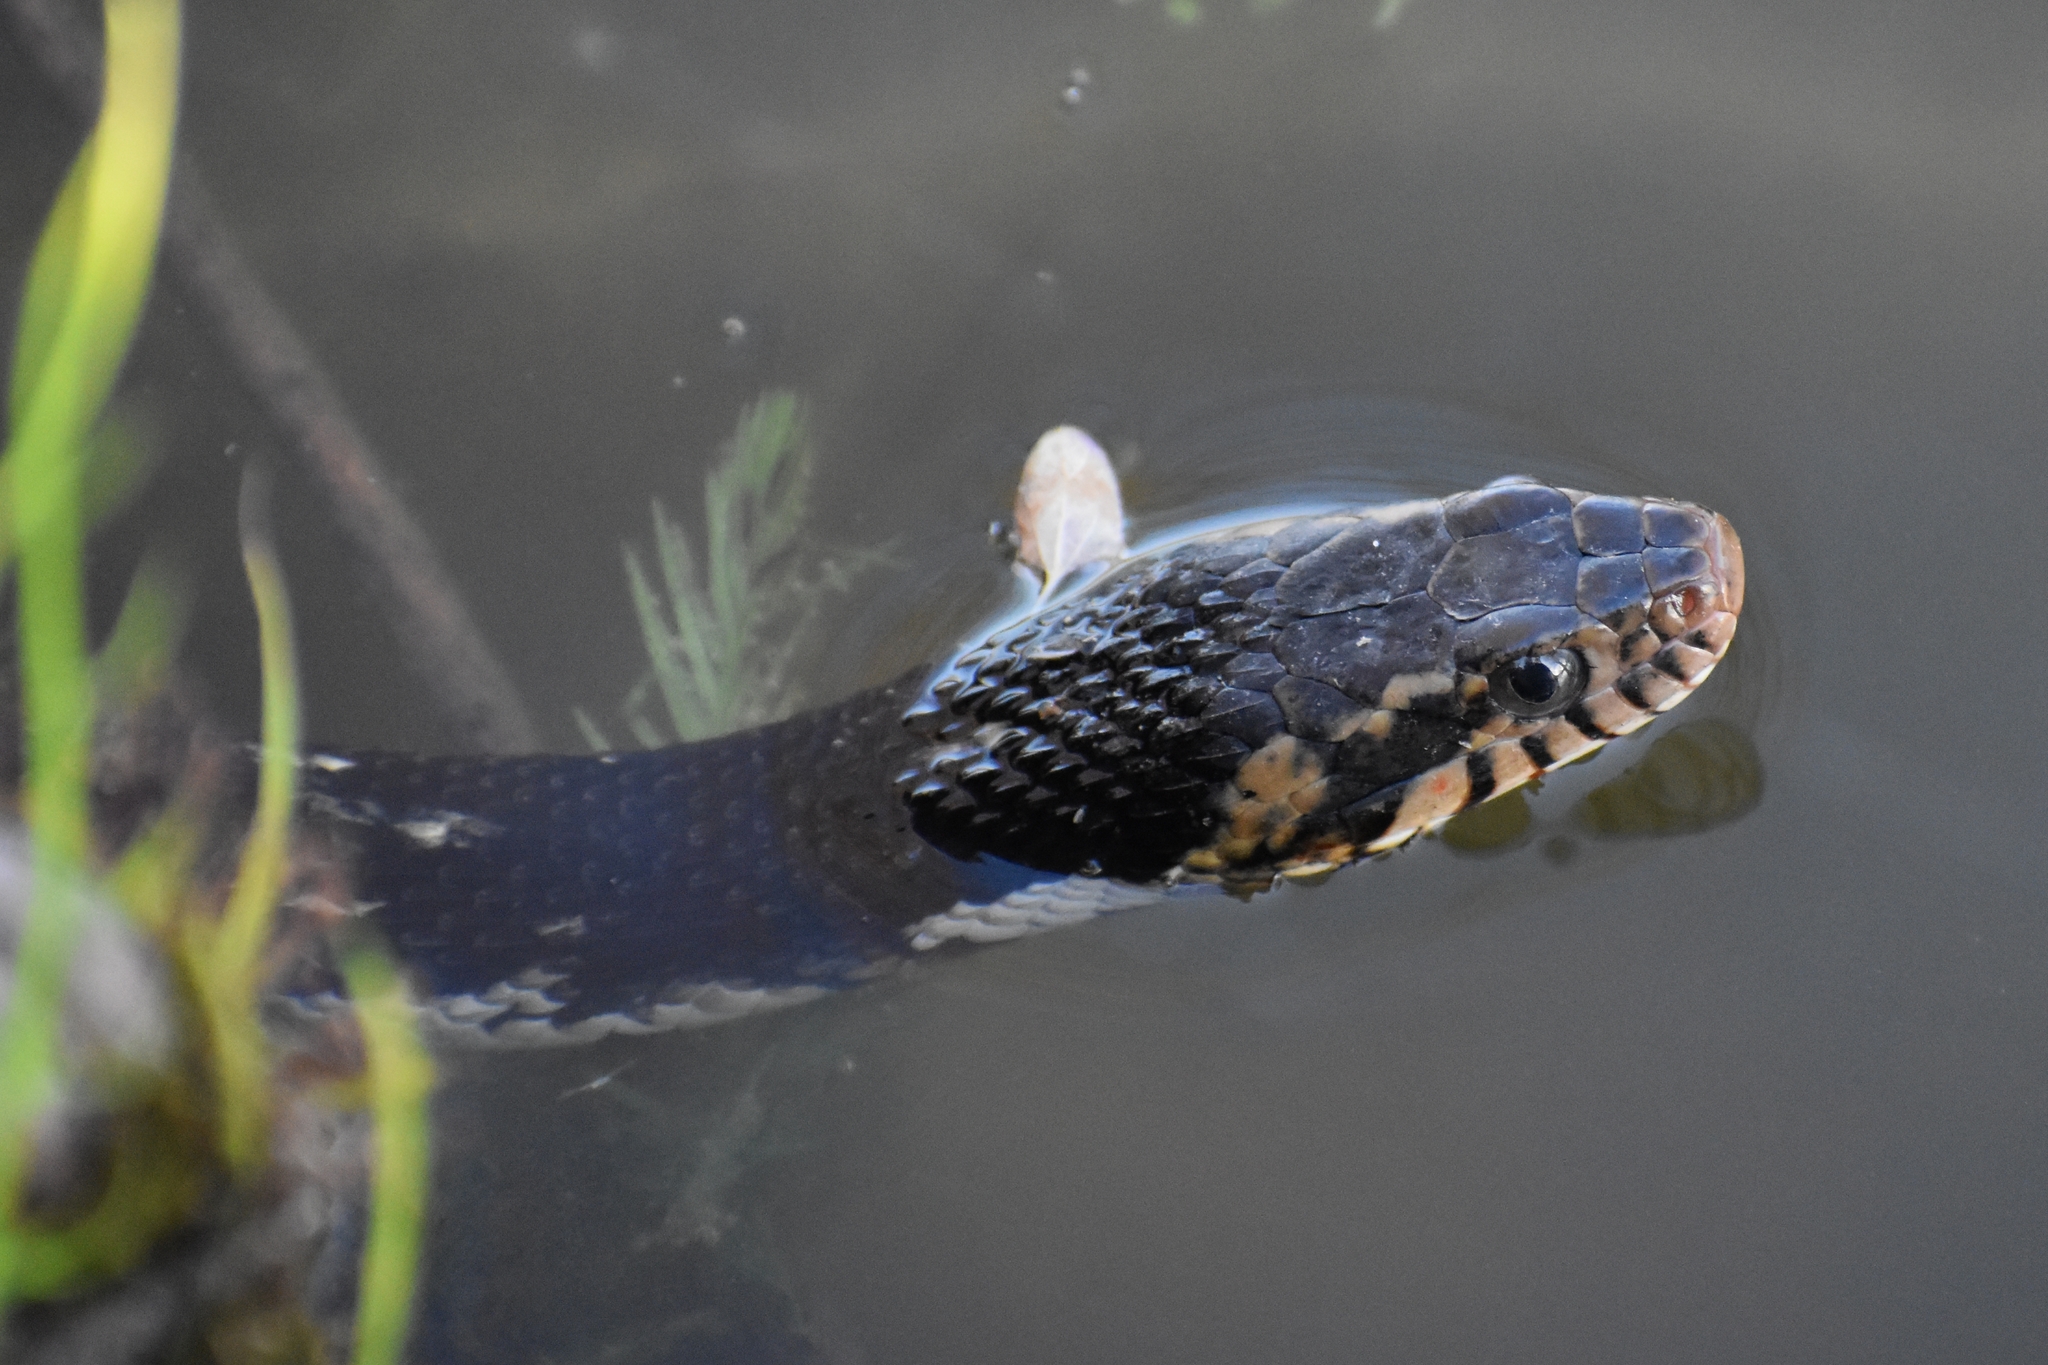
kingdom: Animalia
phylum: Chordata
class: Squamata
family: Colubridae
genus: Nerodia
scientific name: Nerodia fasciata
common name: Southern water snake
